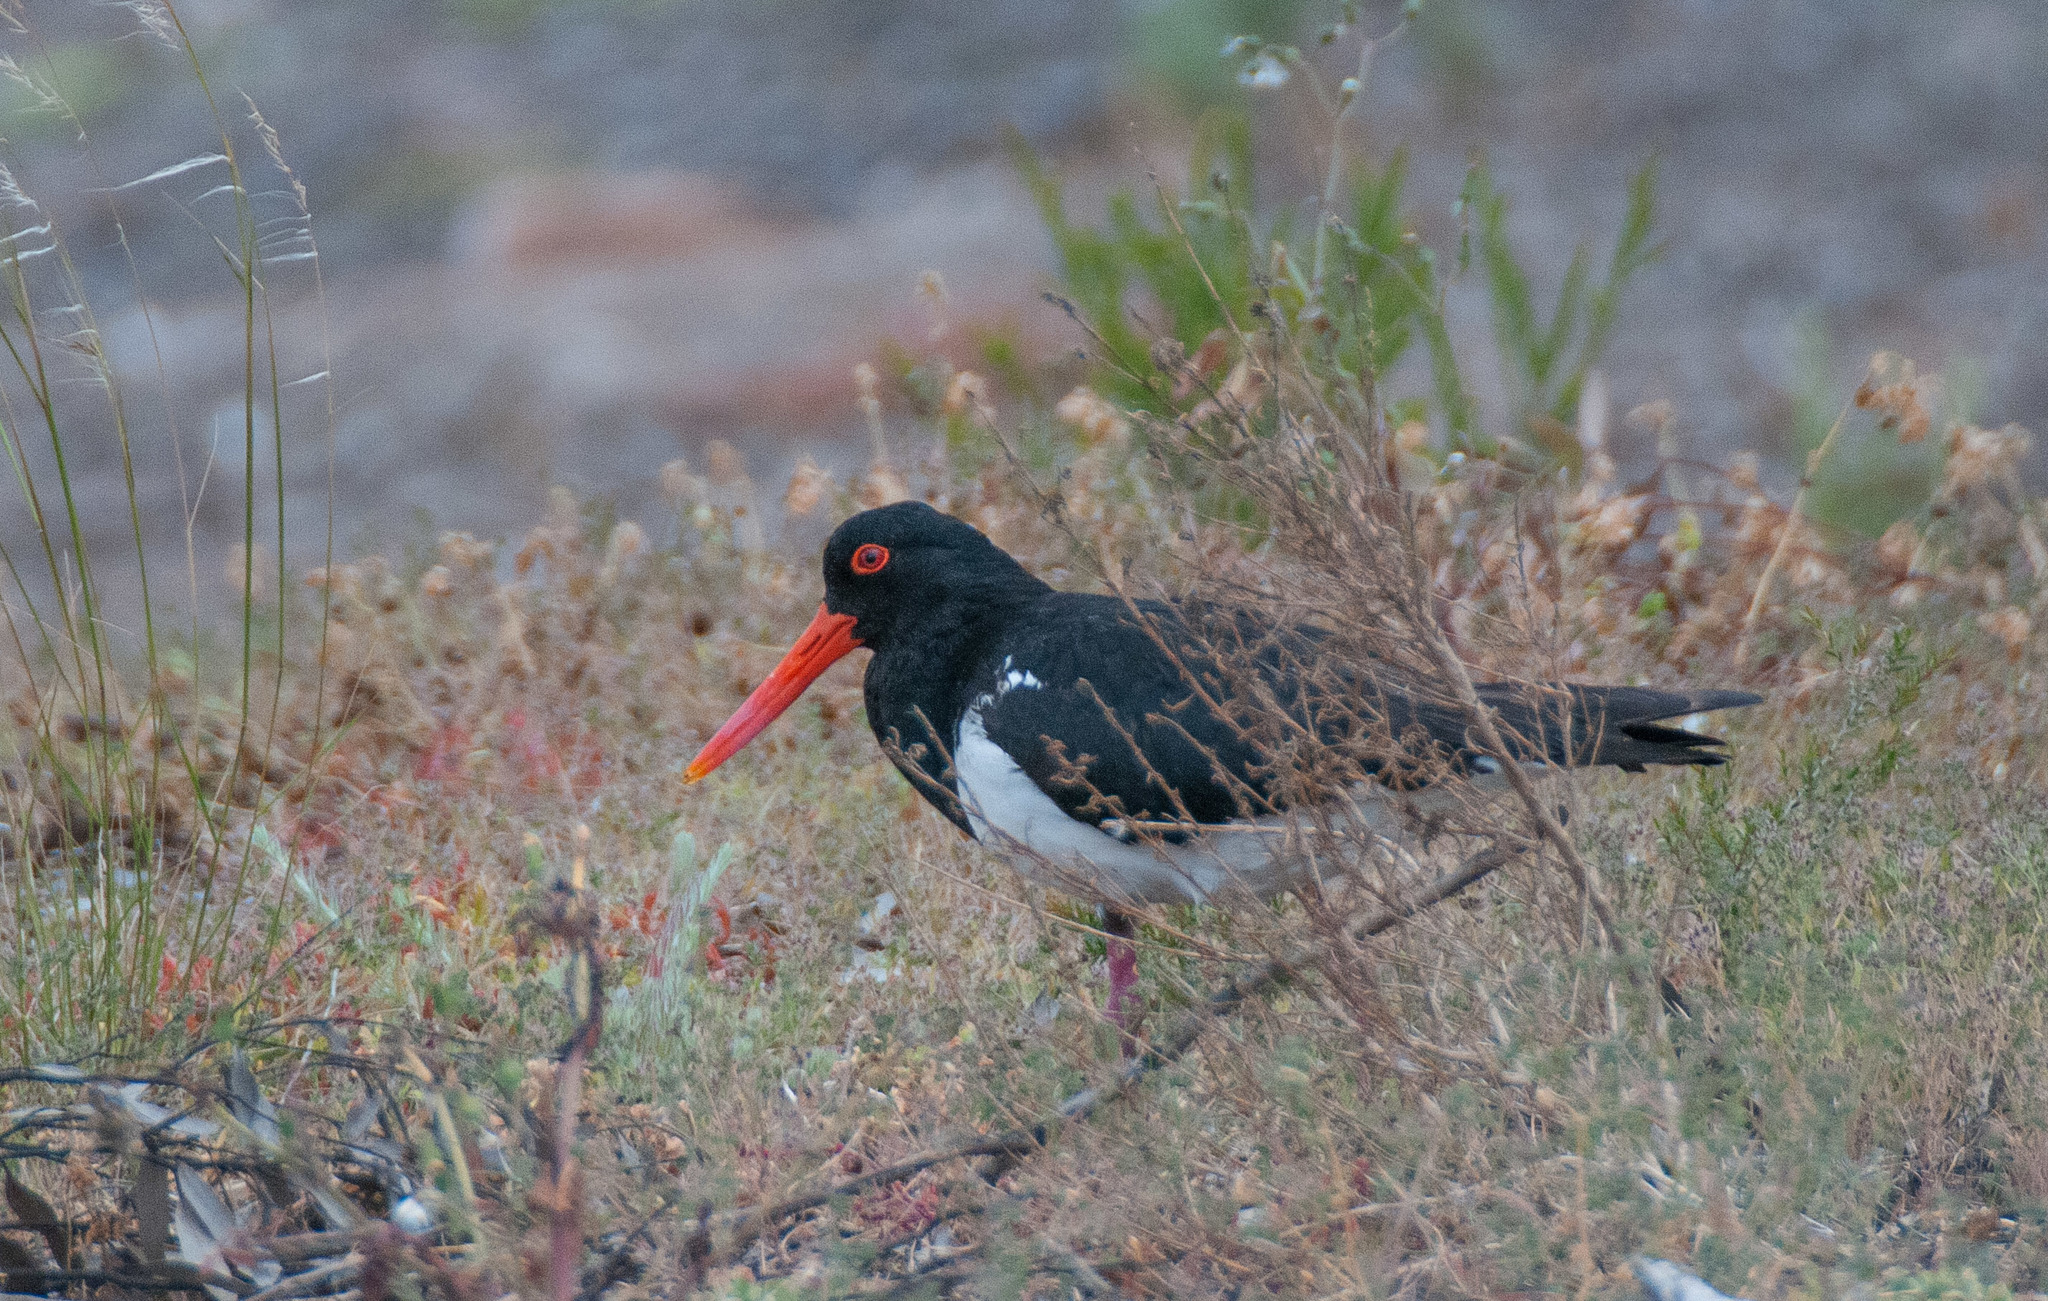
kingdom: Animalia
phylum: Chordata
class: Aves
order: Charadriiformes
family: Haematopodidae
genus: Haematopus
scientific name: Haematopus longirostris
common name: Pied oystercatcher
